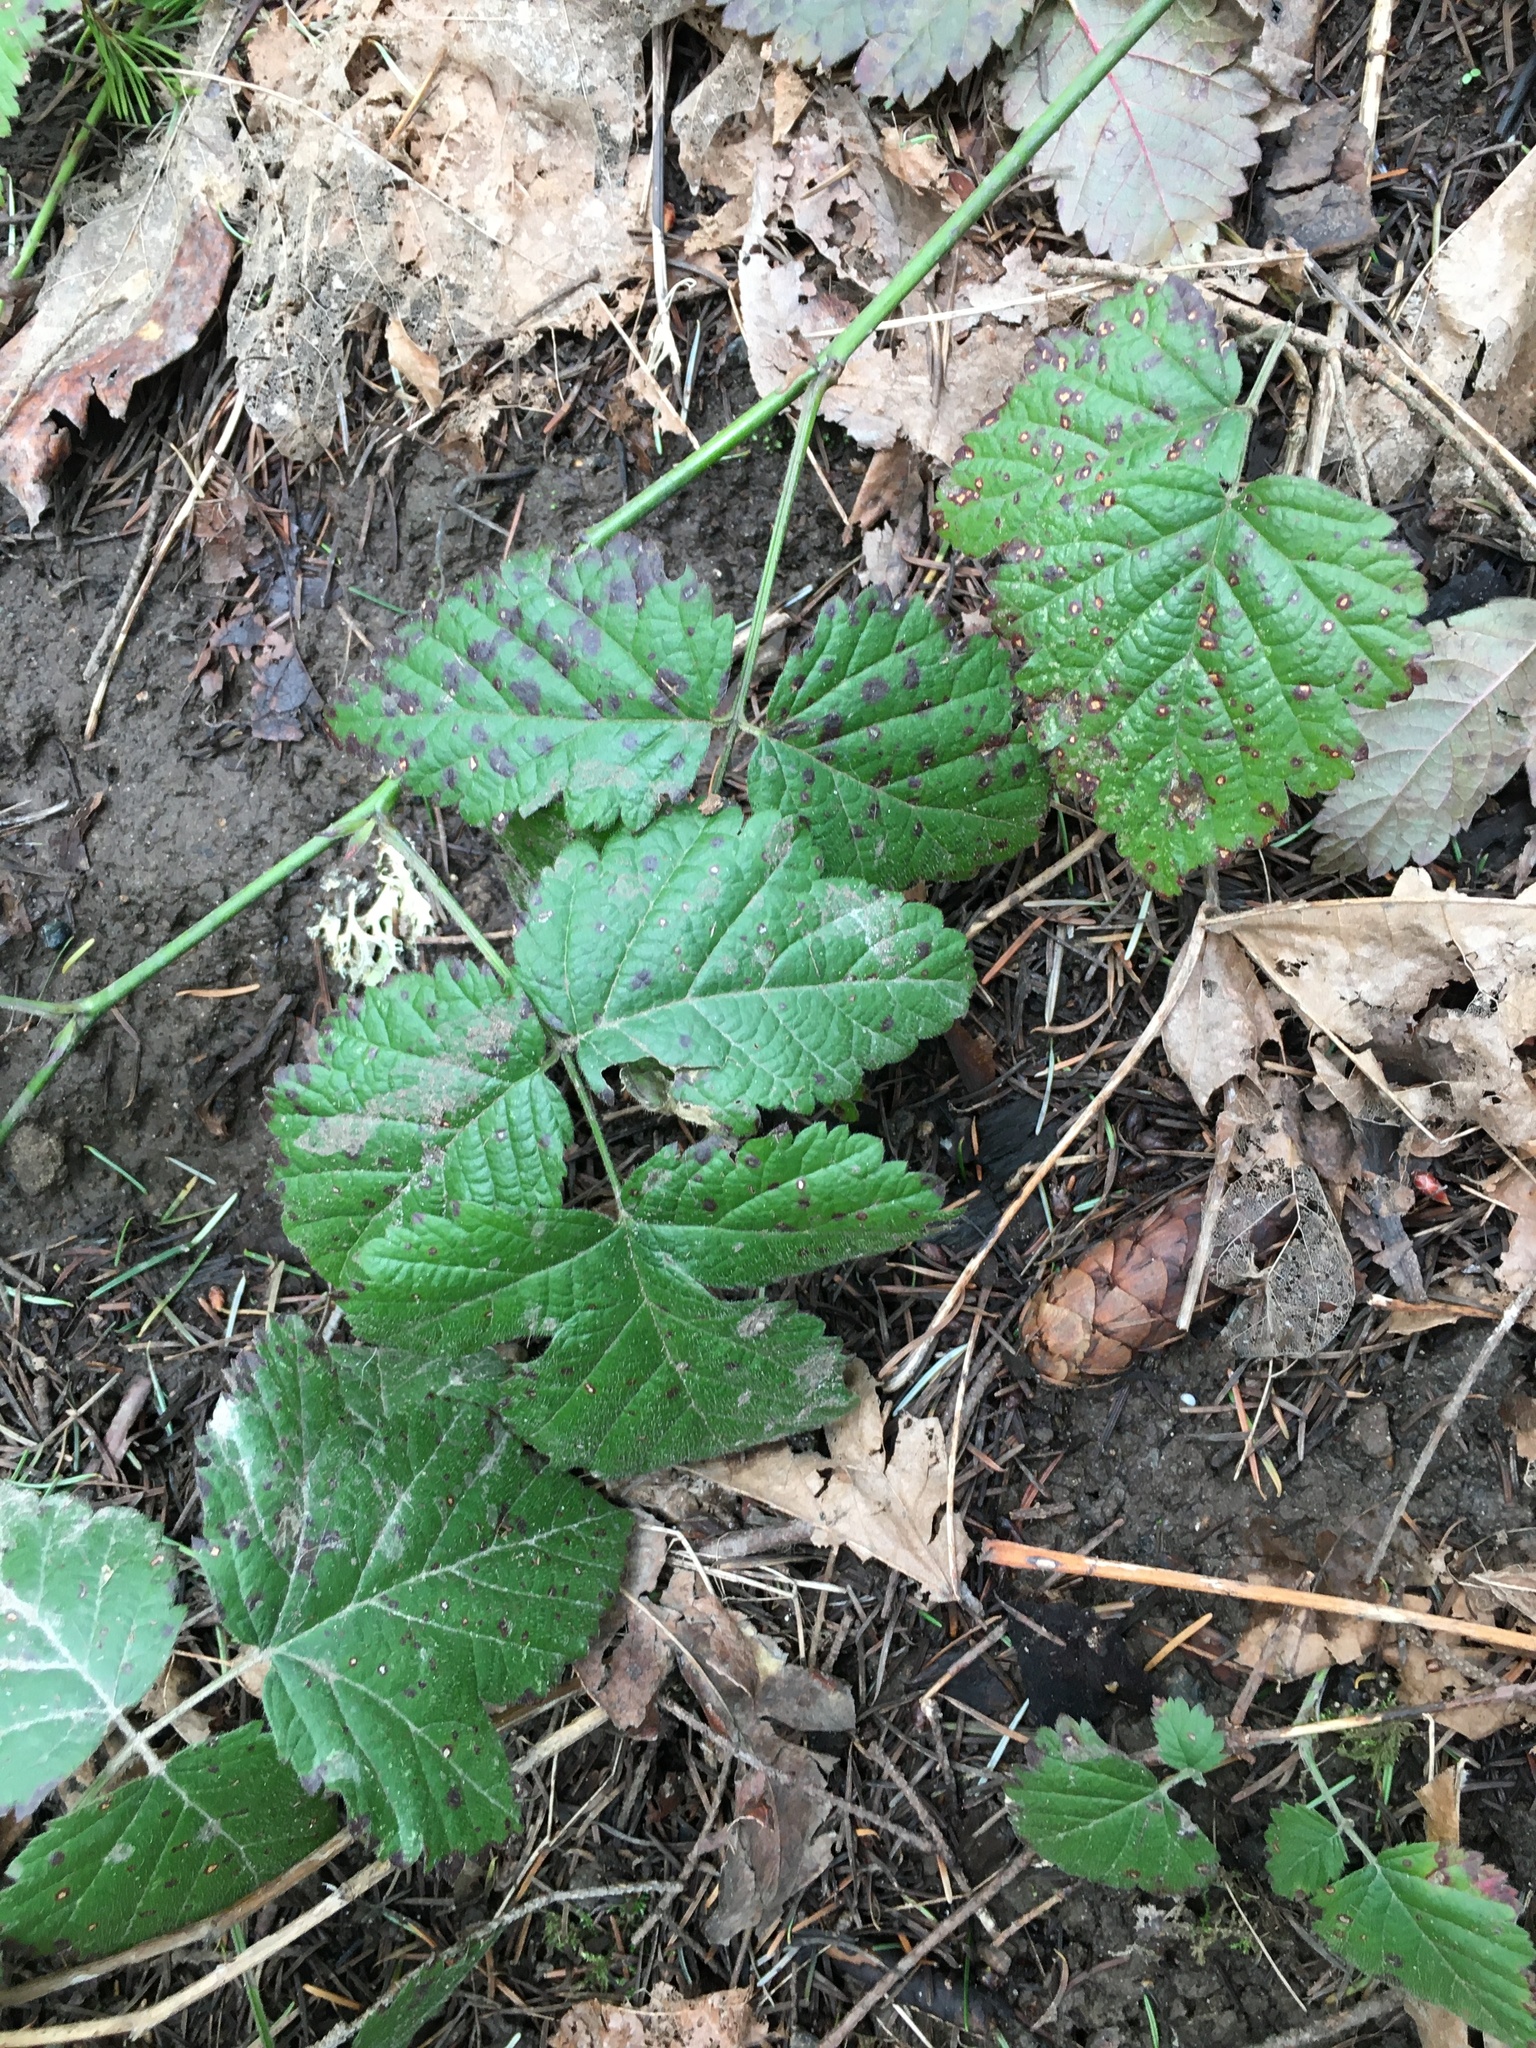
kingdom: Plantae
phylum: Tracheophyta
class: Magnoliopsida
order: Rosales
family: Rosaceae
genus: Rubus
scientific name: Rubus ursinus
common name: Pacific blackberry
